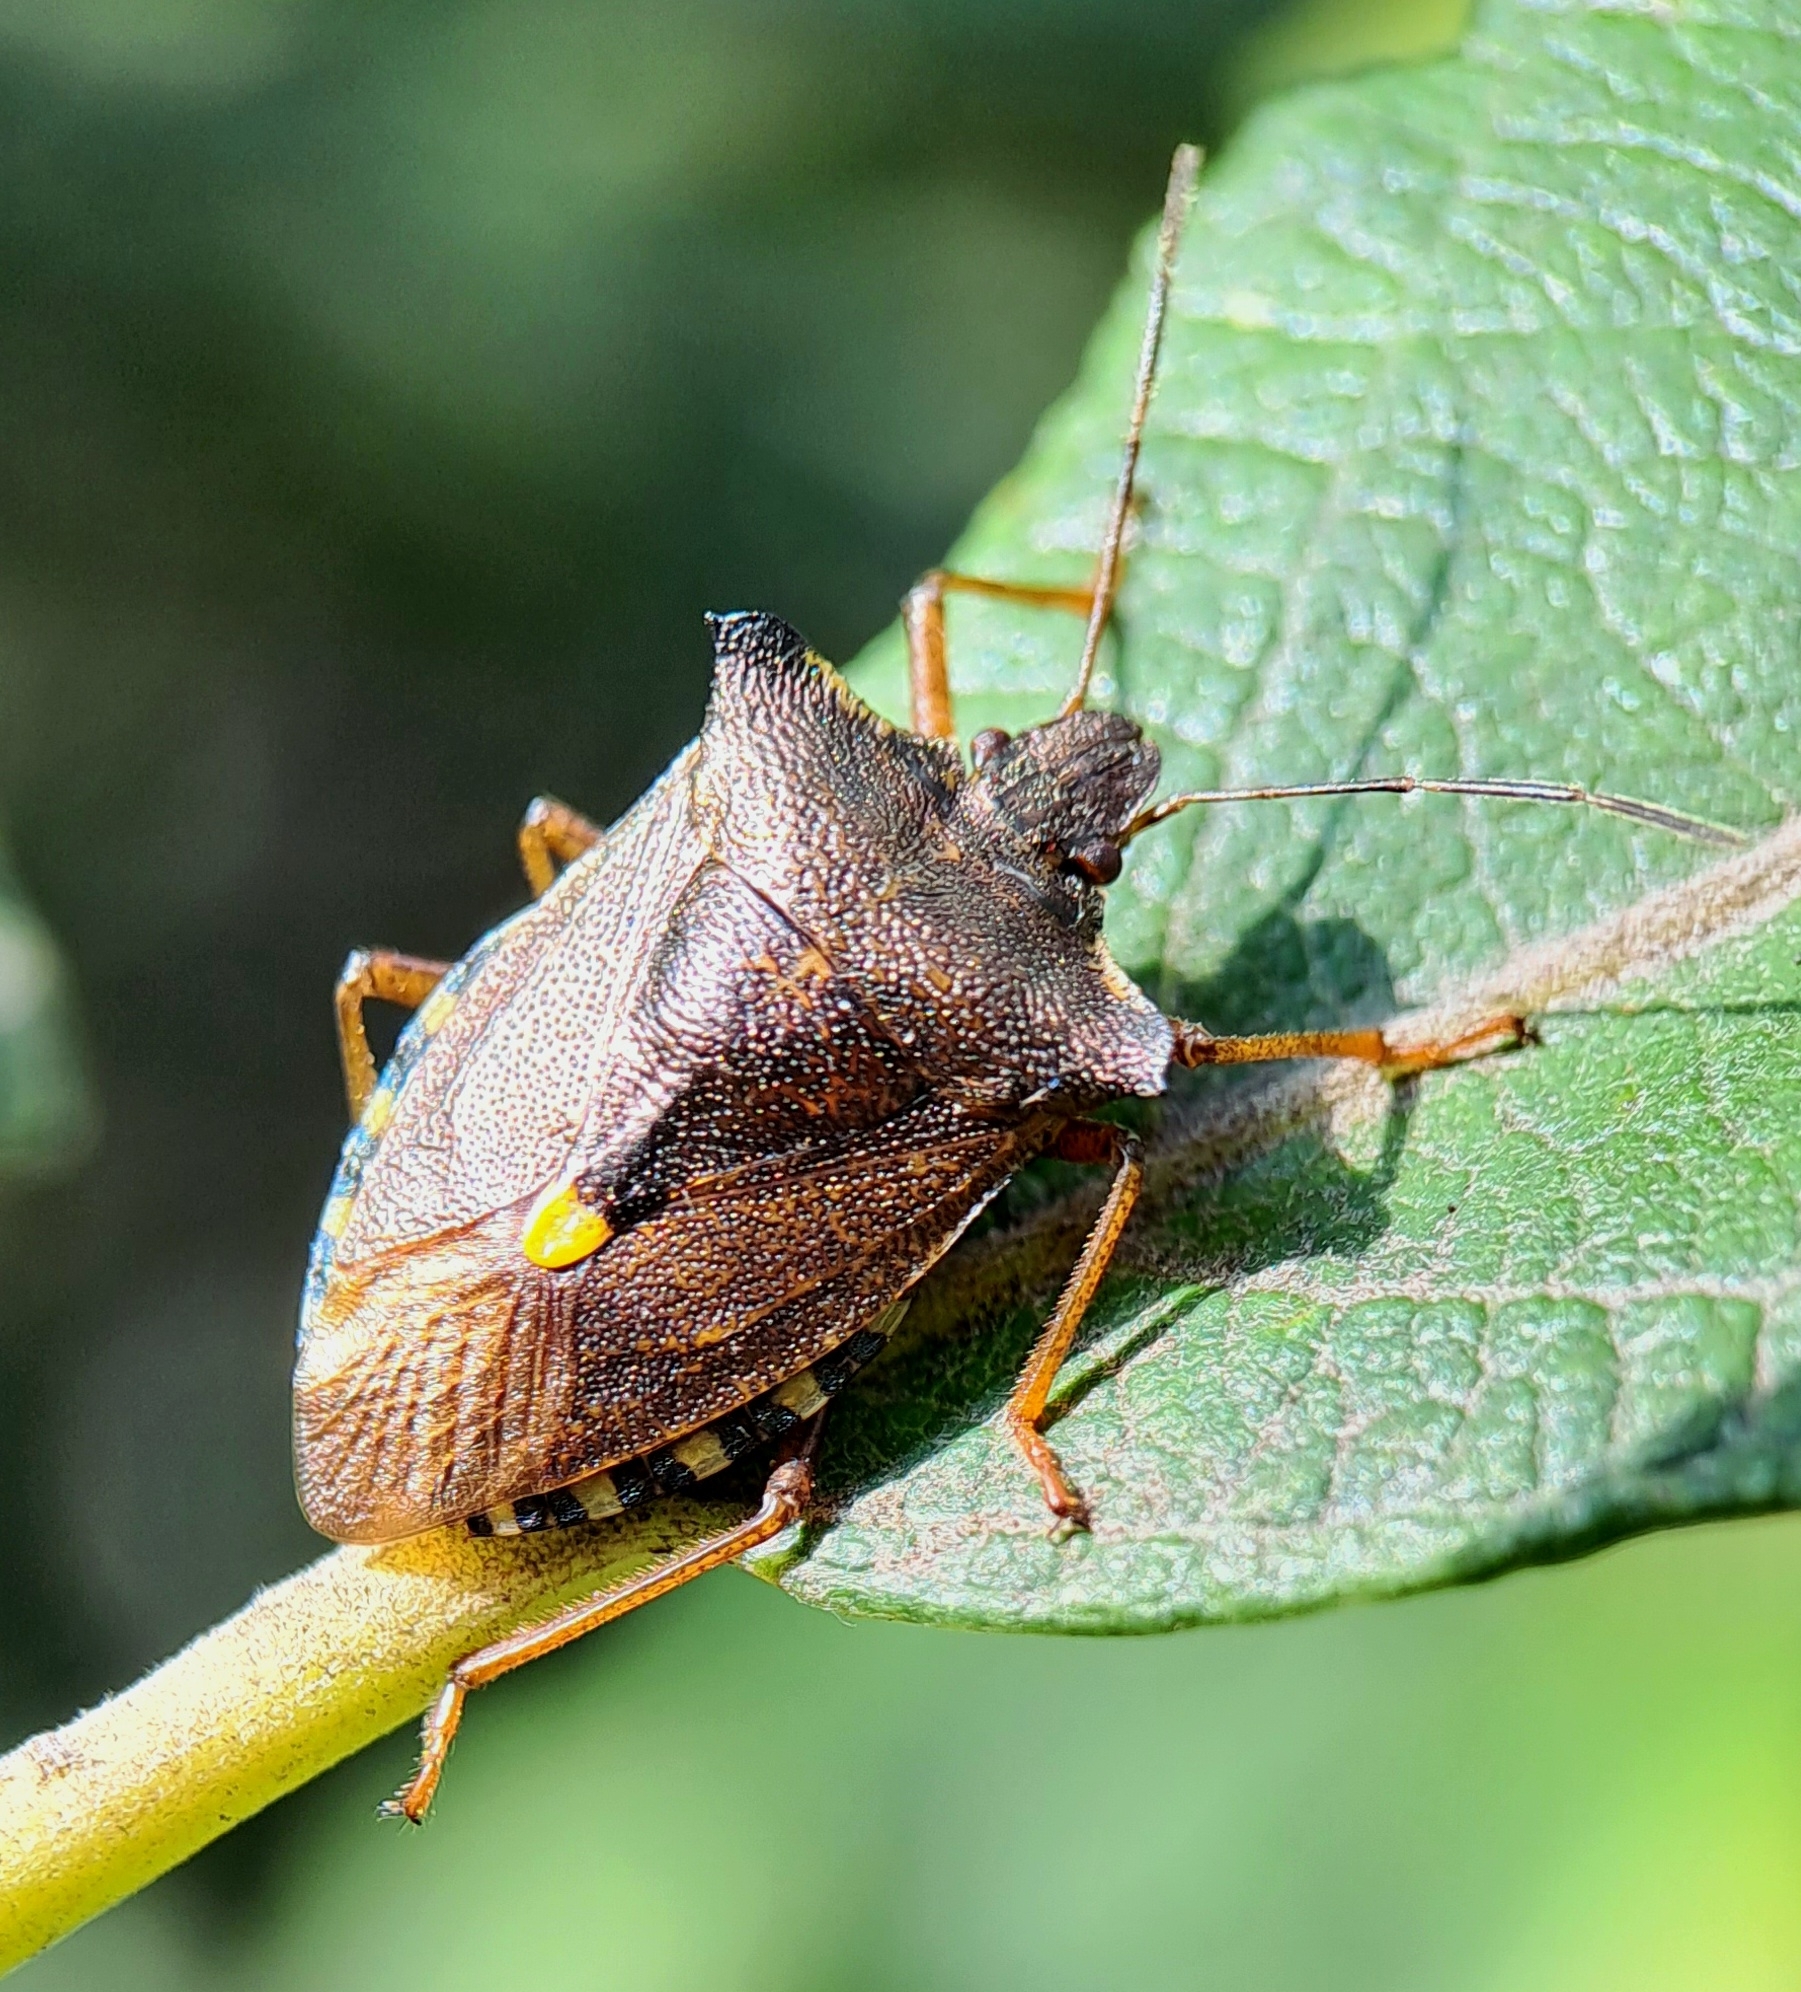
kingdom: Animalia
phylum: Arthropoda
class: Insecta
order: Hemiptera
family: Pentatomidae
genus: Pentatoma
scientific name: Pentatoma rufipes
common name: Forest bug
